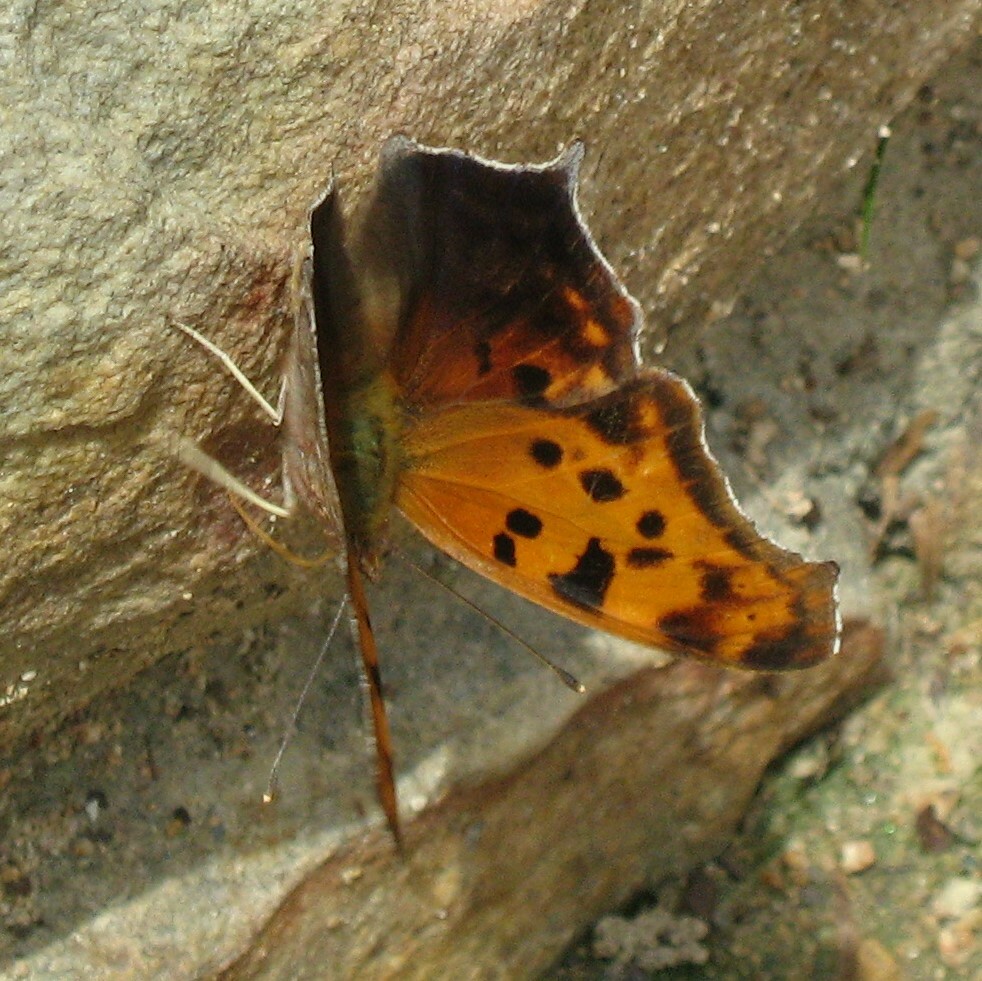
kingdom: Animalia
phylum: Arthropoda
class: Insecta
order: Lepidoptera
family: Nymphalidae
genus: Polygonia
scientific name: Polygonia interrogationis
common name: Question mark
